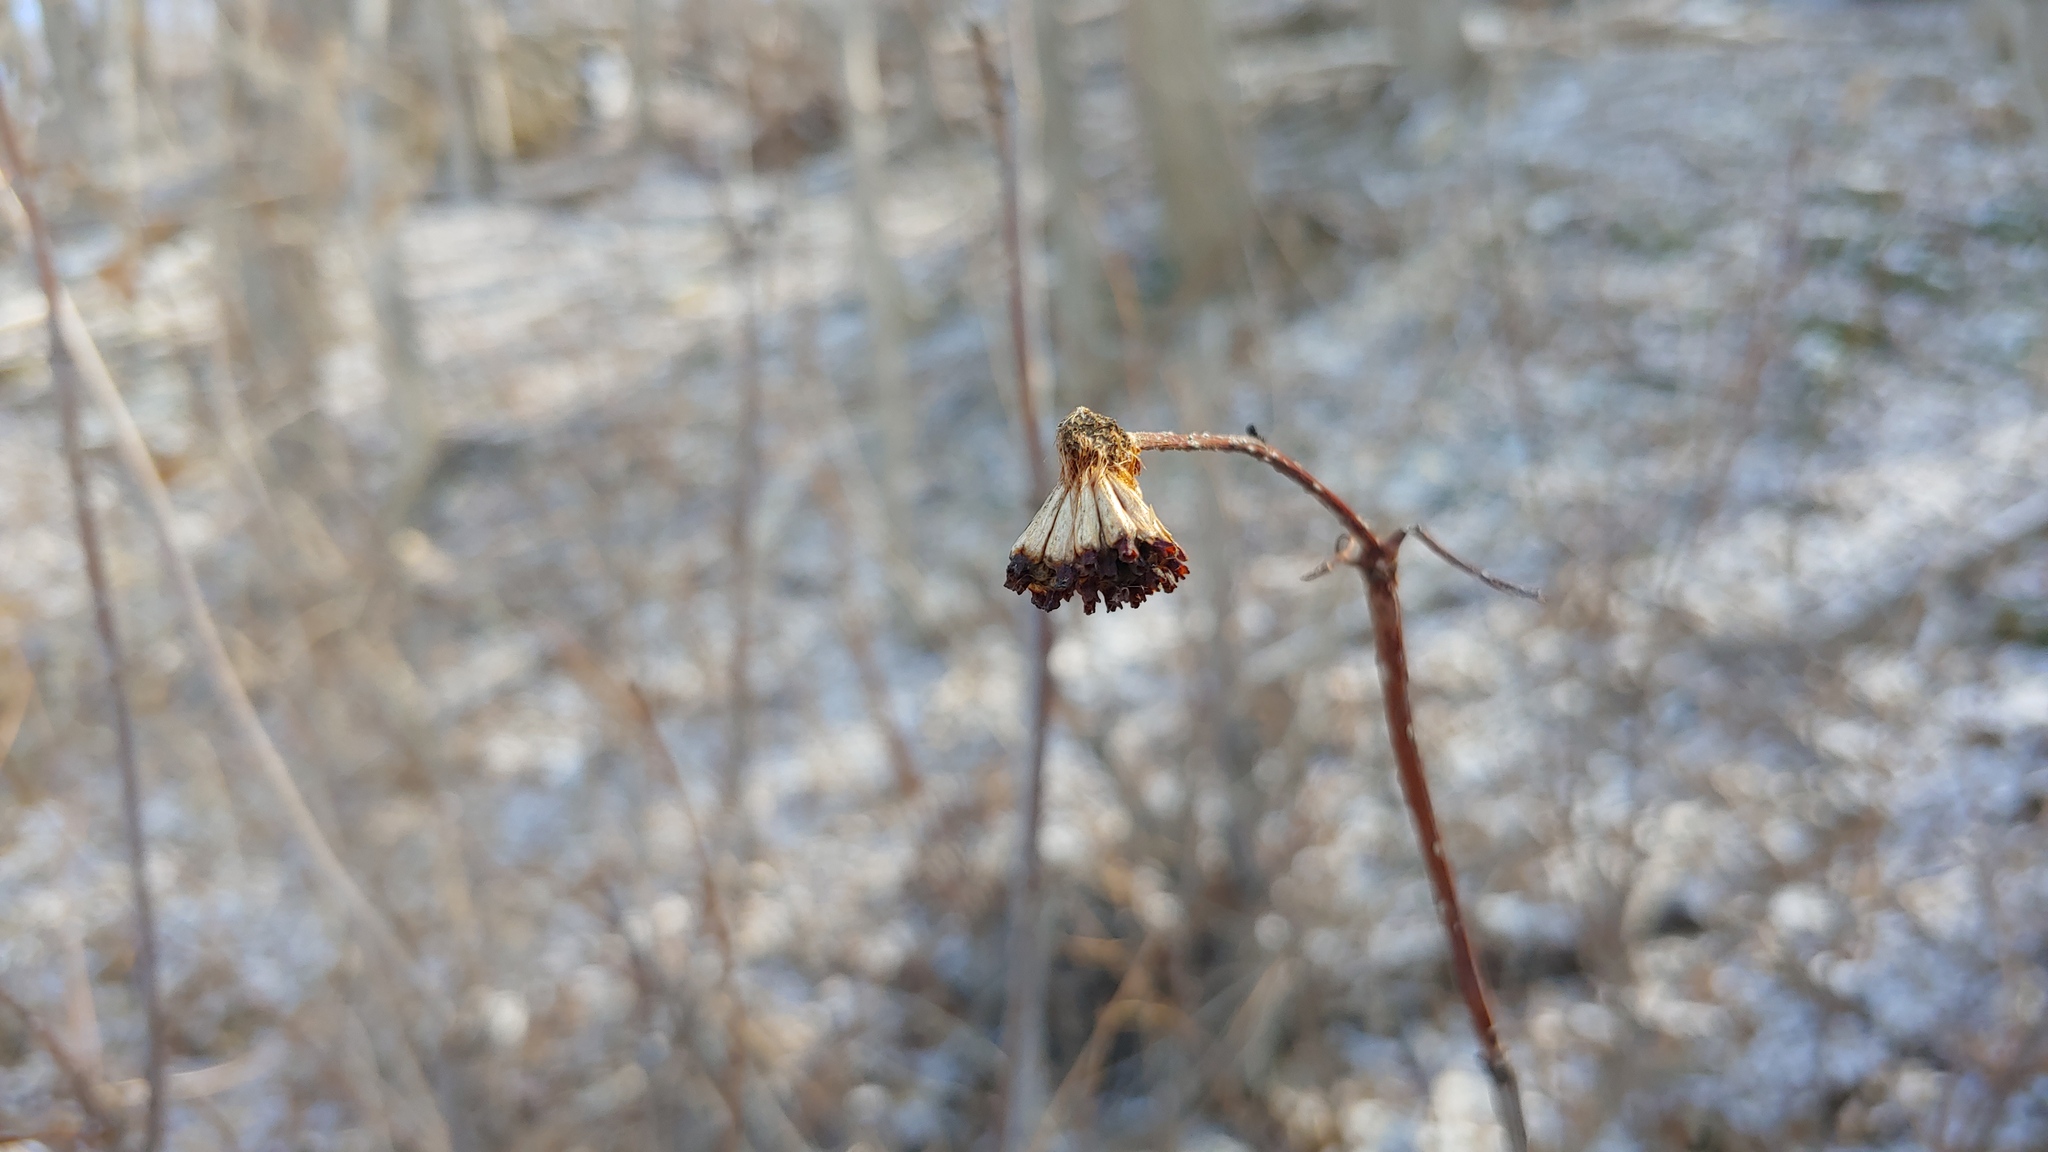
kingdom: Plantae
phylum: Tracheophyta
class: Magnoliopsida
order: Gentianales
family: Rubiaceae
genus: Cephalanthus
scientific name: Cephalanthus occidentalis
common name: Button-willow
